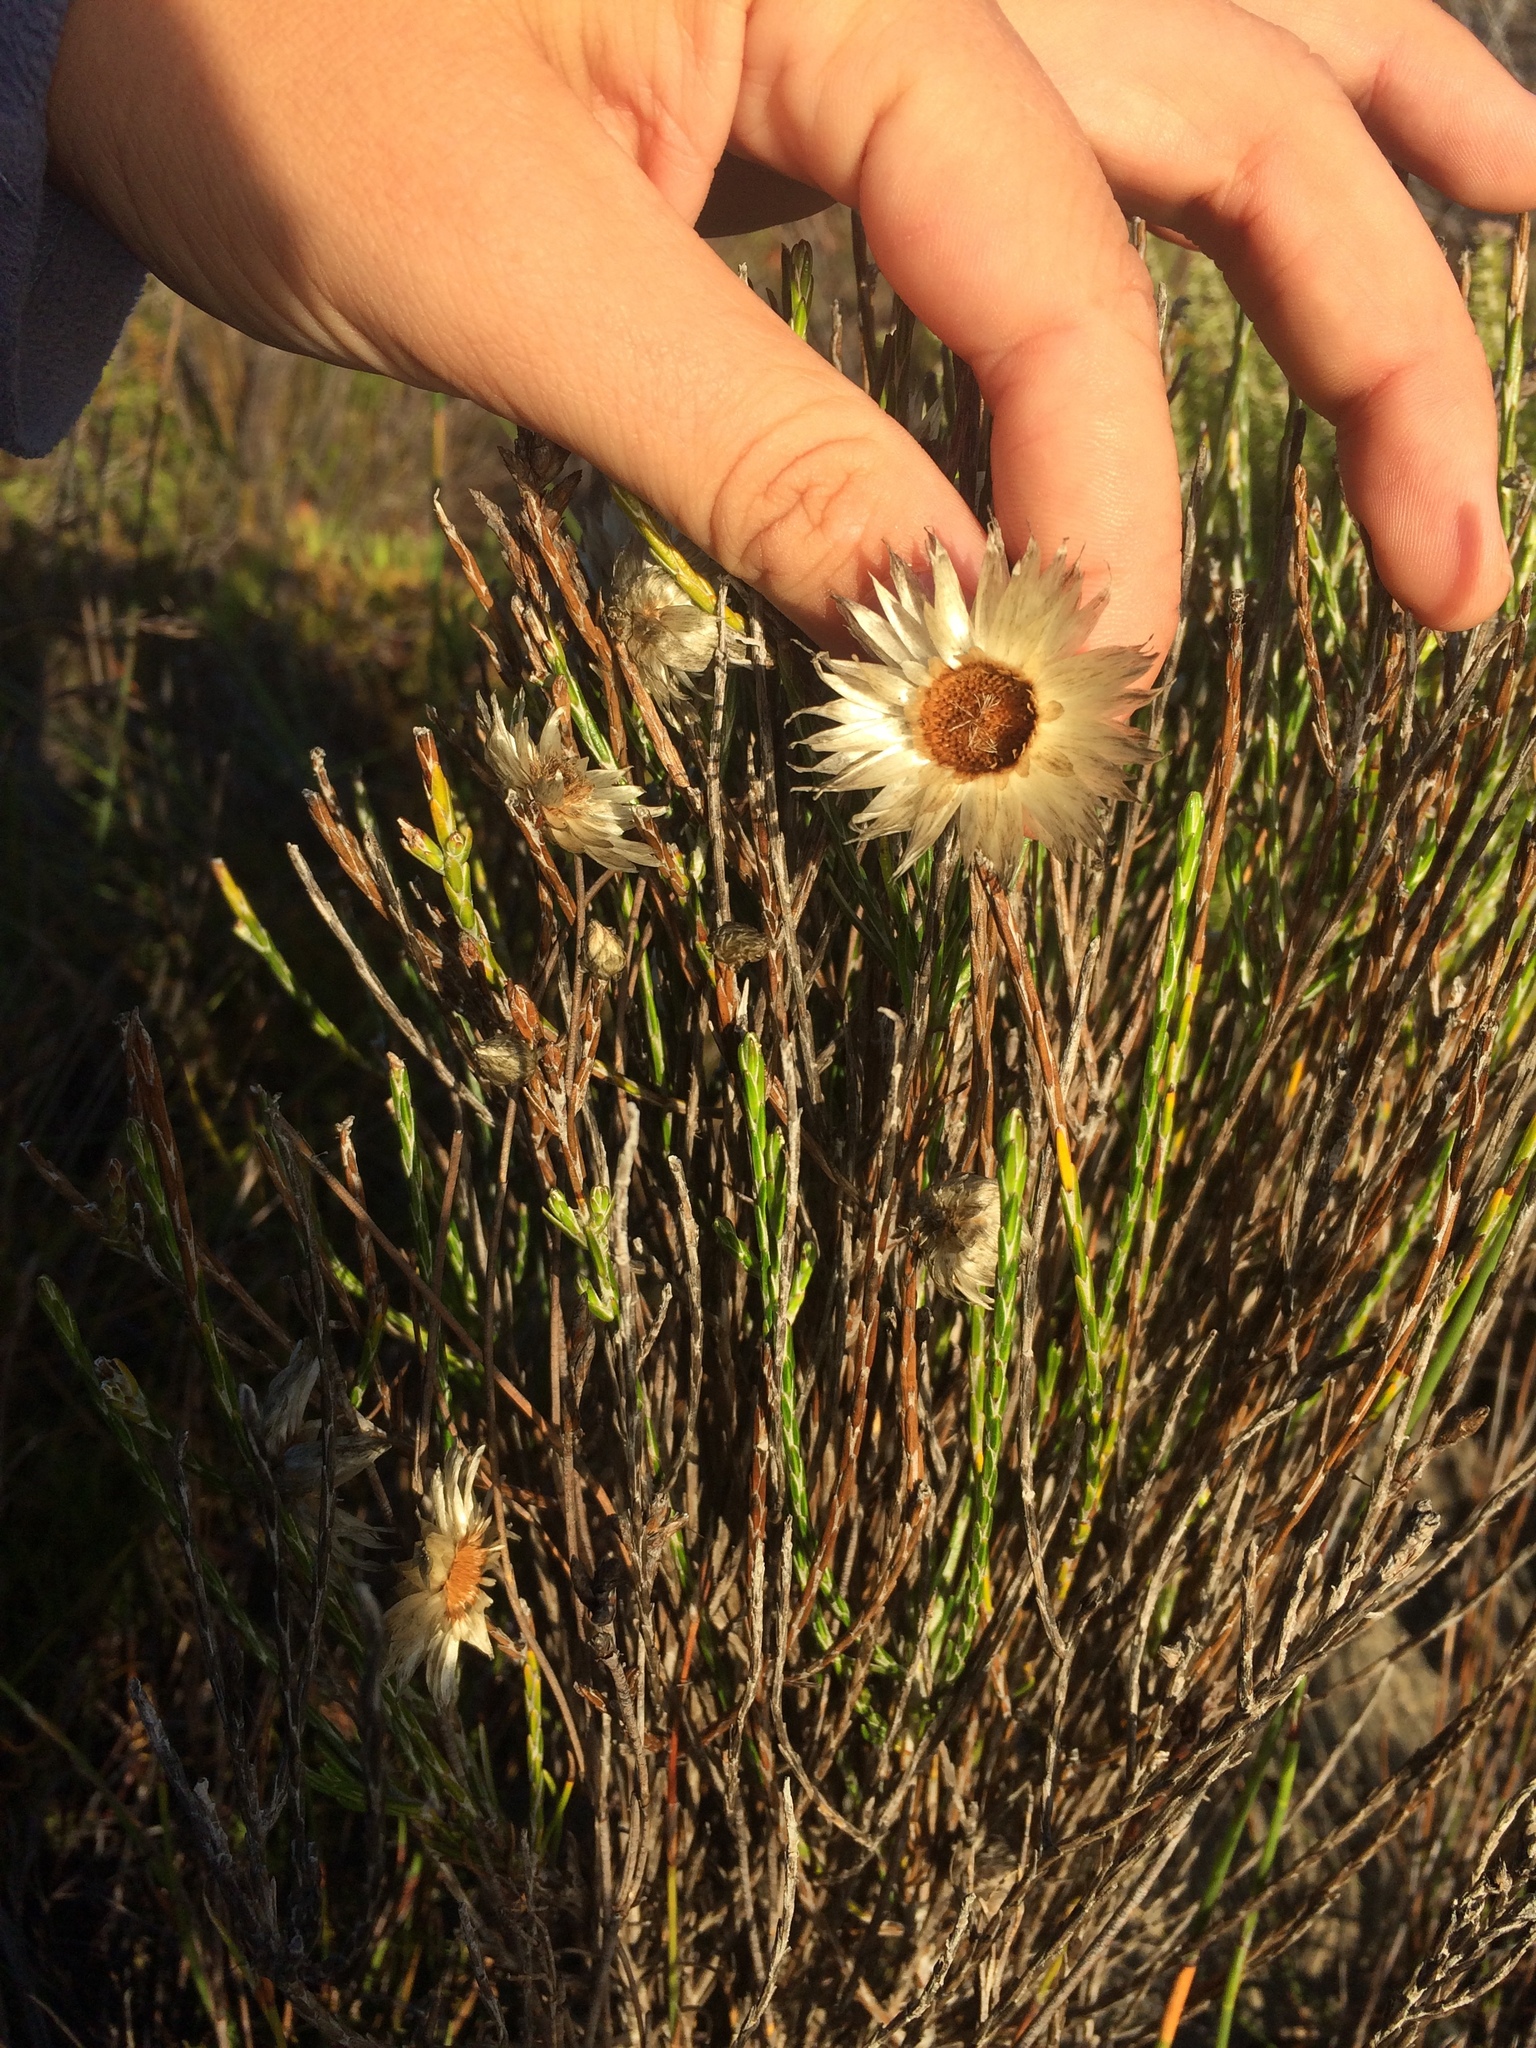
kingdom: Plantae
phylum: Tracheophyta
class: Magnoliopsida
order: Asterales
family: Asteraceae
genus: Edmondia
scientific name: Edmondia sesamoides
